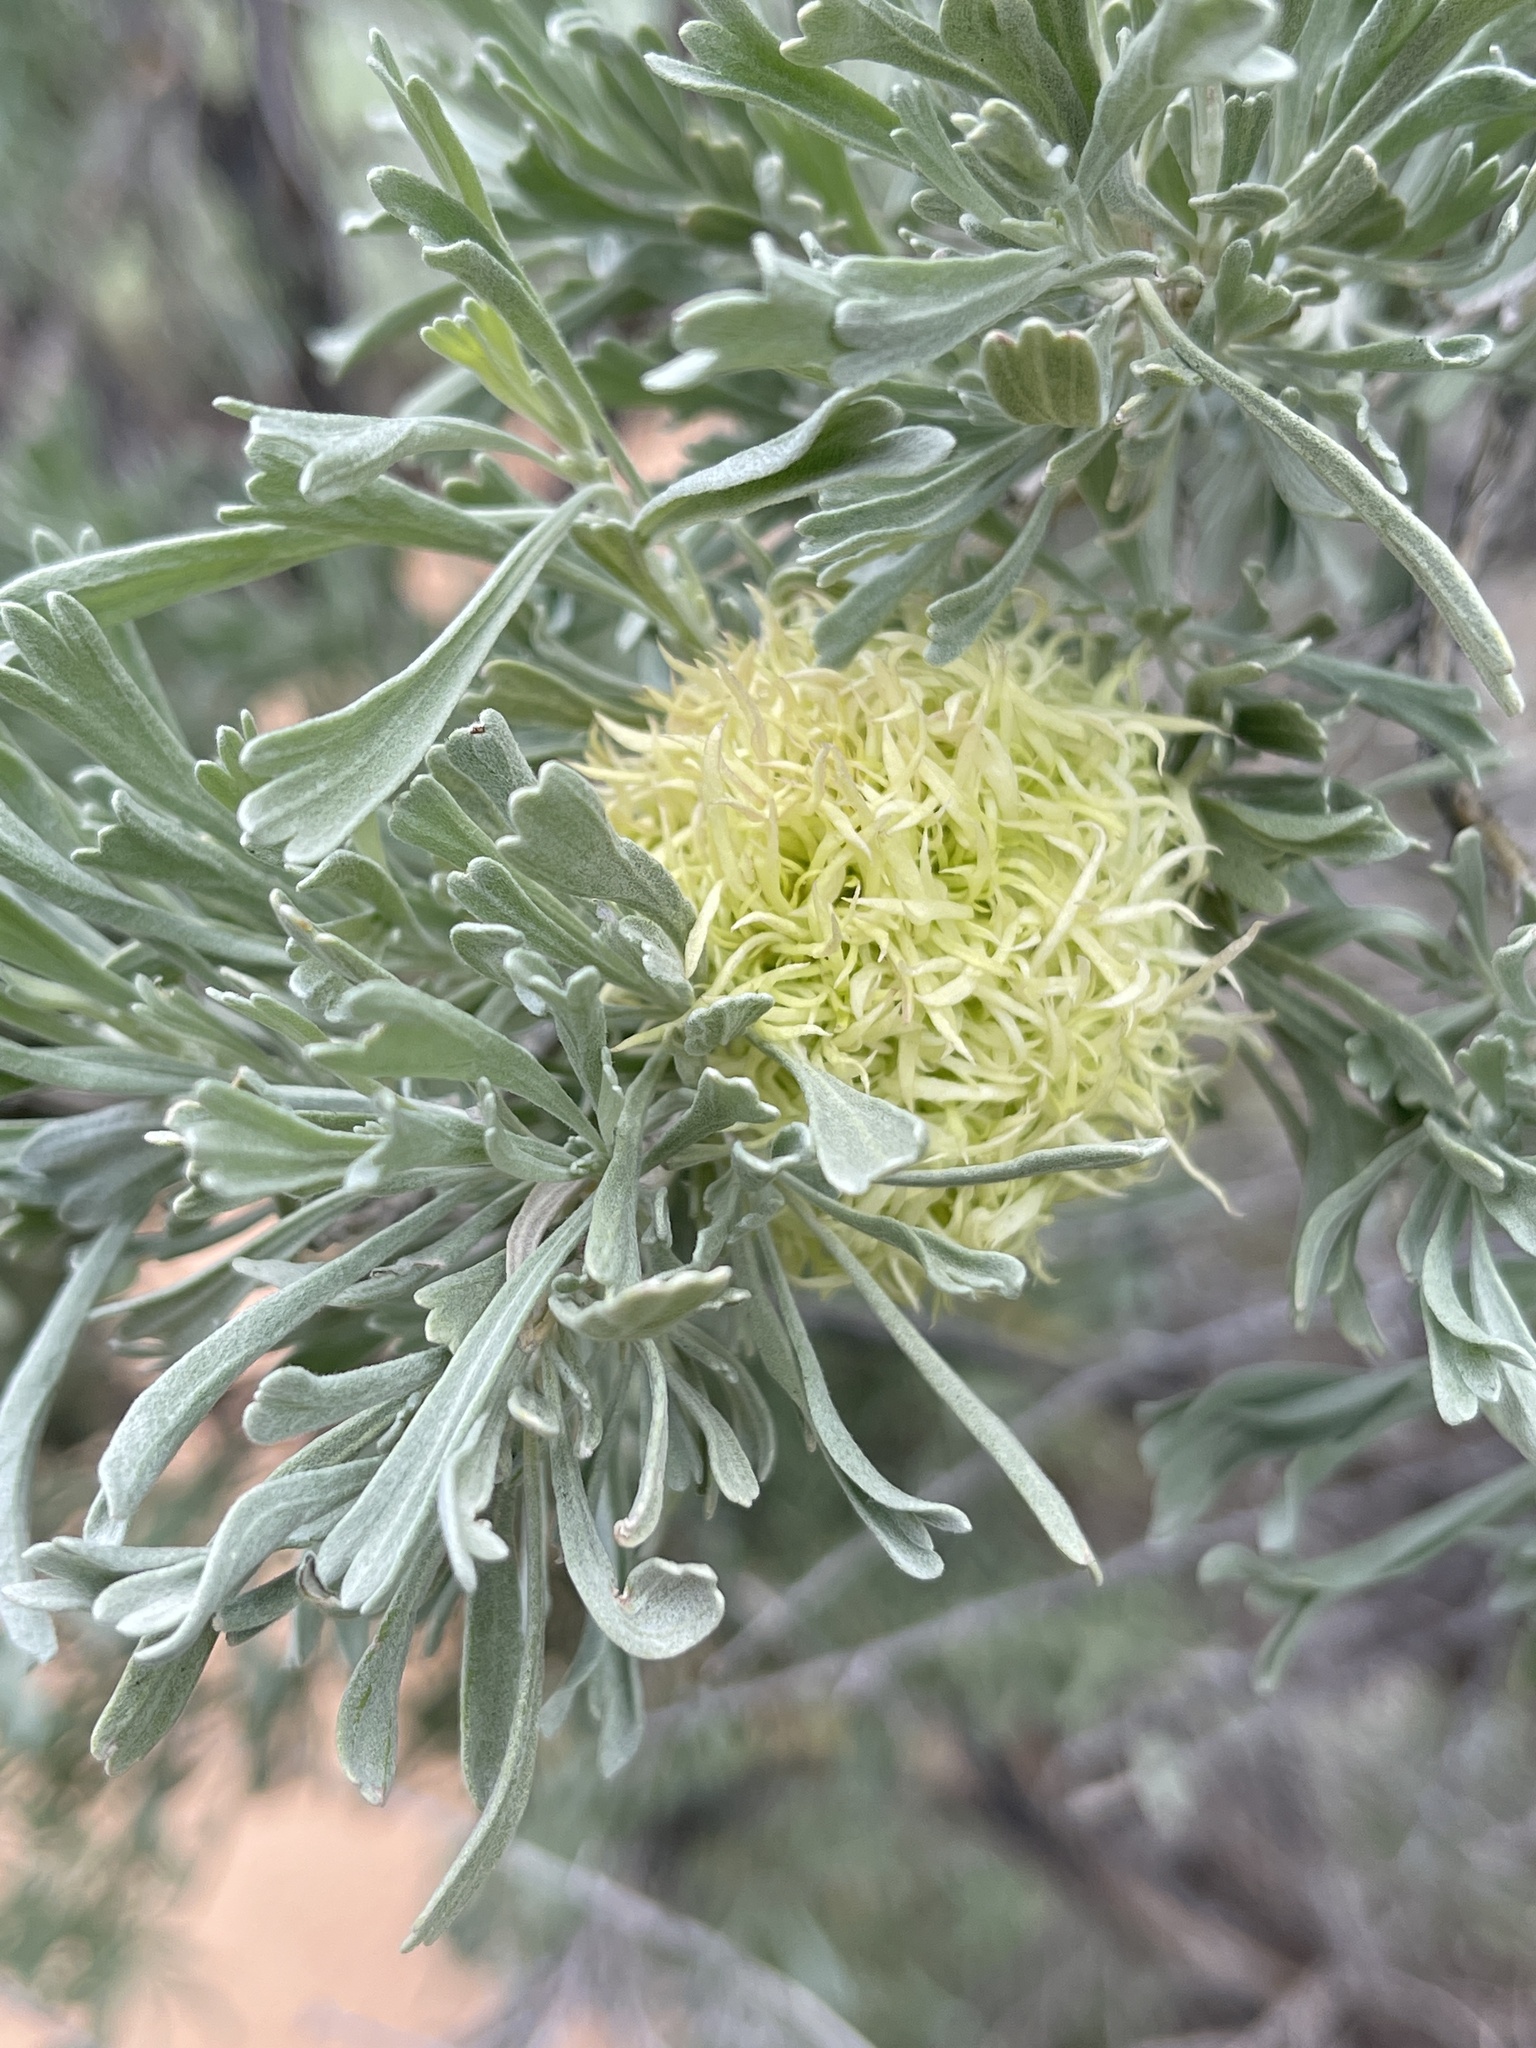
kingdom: Animalia
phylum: Arthropoda
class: Insecta
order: Diptera
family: Cecidomyiidae
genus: Rhopalomyia
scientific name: Rhopalomyia medusa
